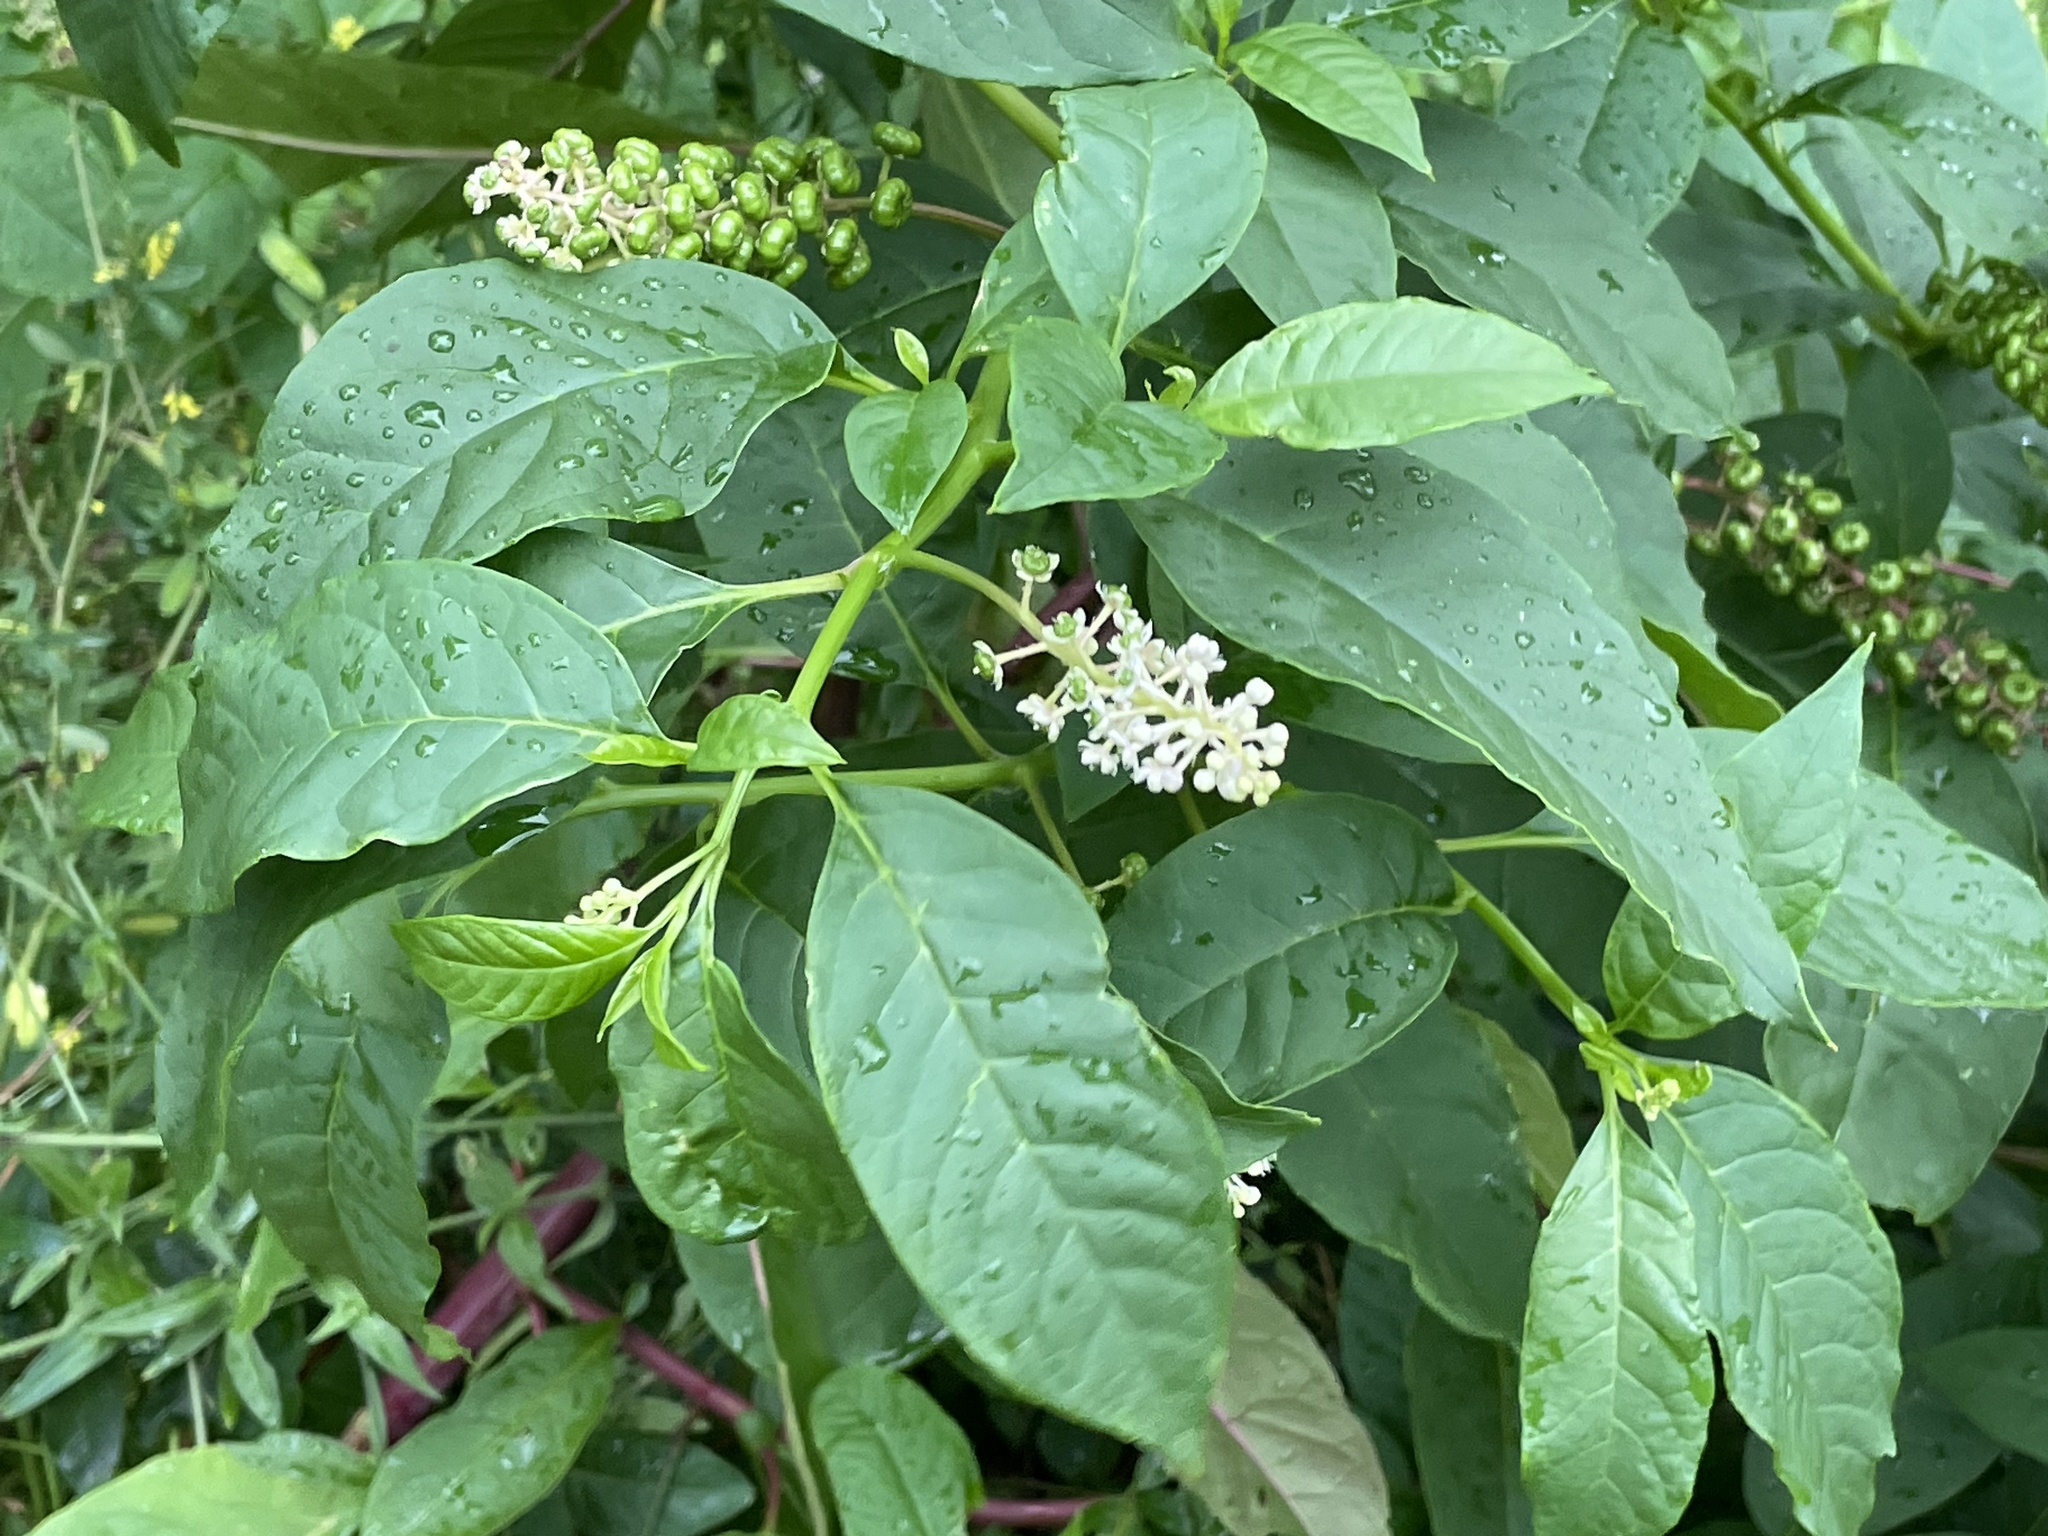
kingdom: Plantae
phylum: Tracheophyta
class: Magnoliopsida
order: Caryophyllales
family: Phytolaccaceae
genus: Phytolacca
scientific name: Phytolacca americana
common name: American pokeweed
